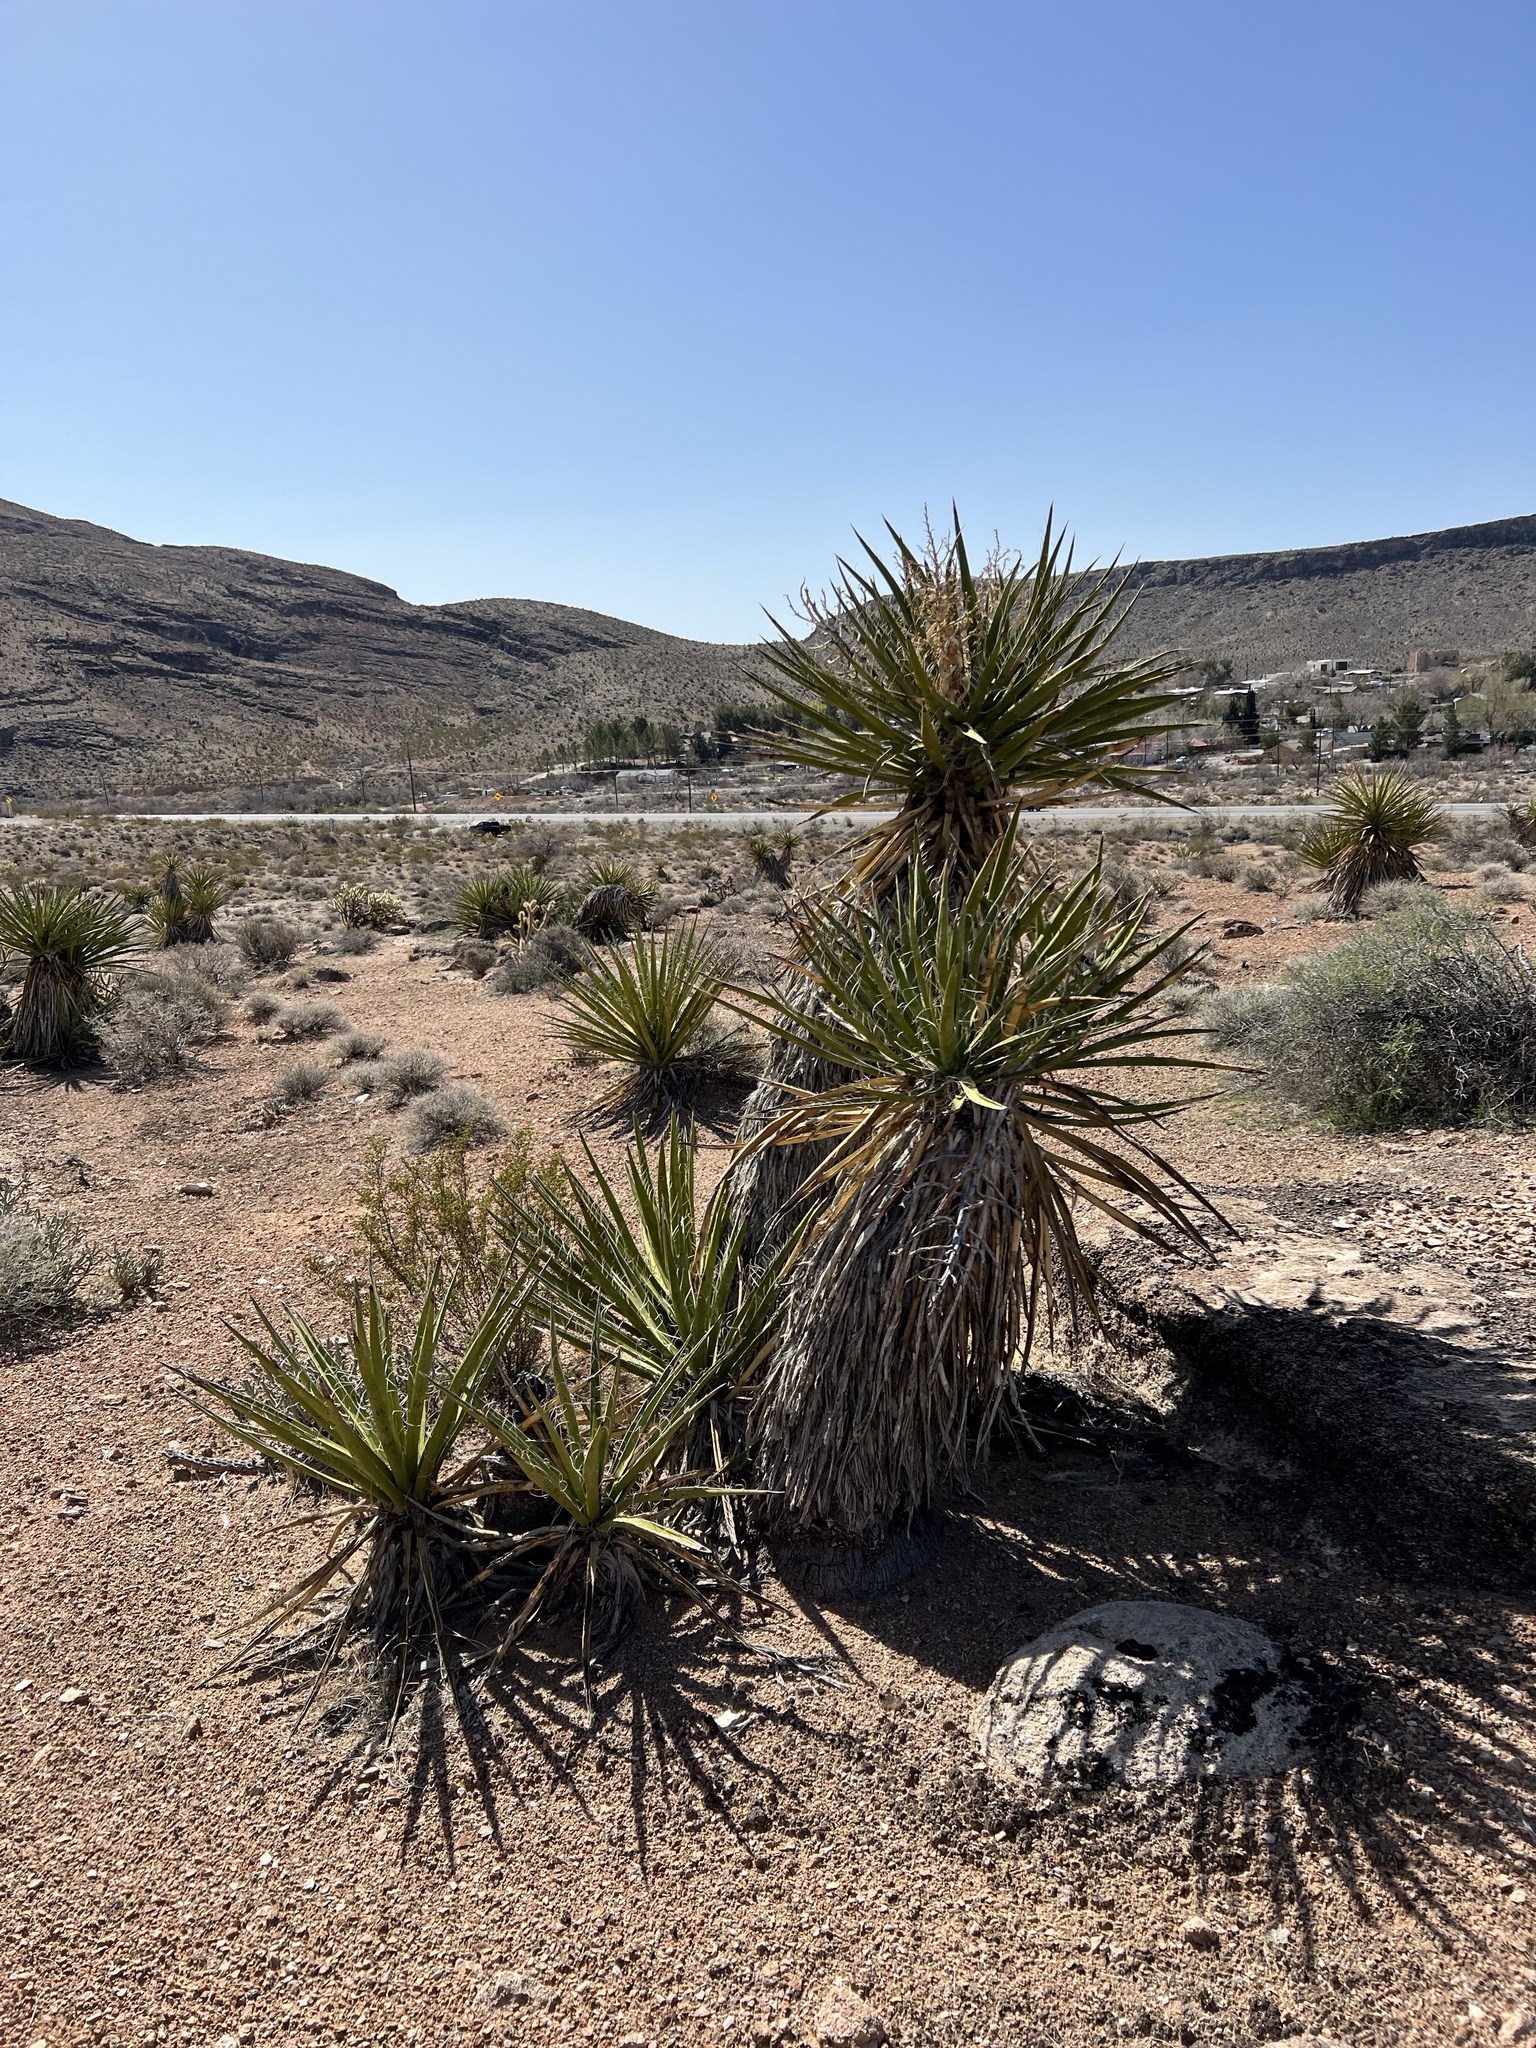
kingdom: Plantae
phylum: Tracheophyta
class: Liliopsida
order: Asparagales
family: Asparagaceae
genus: Yucca
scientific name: Yucca schidigera
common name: Mojave yucca
